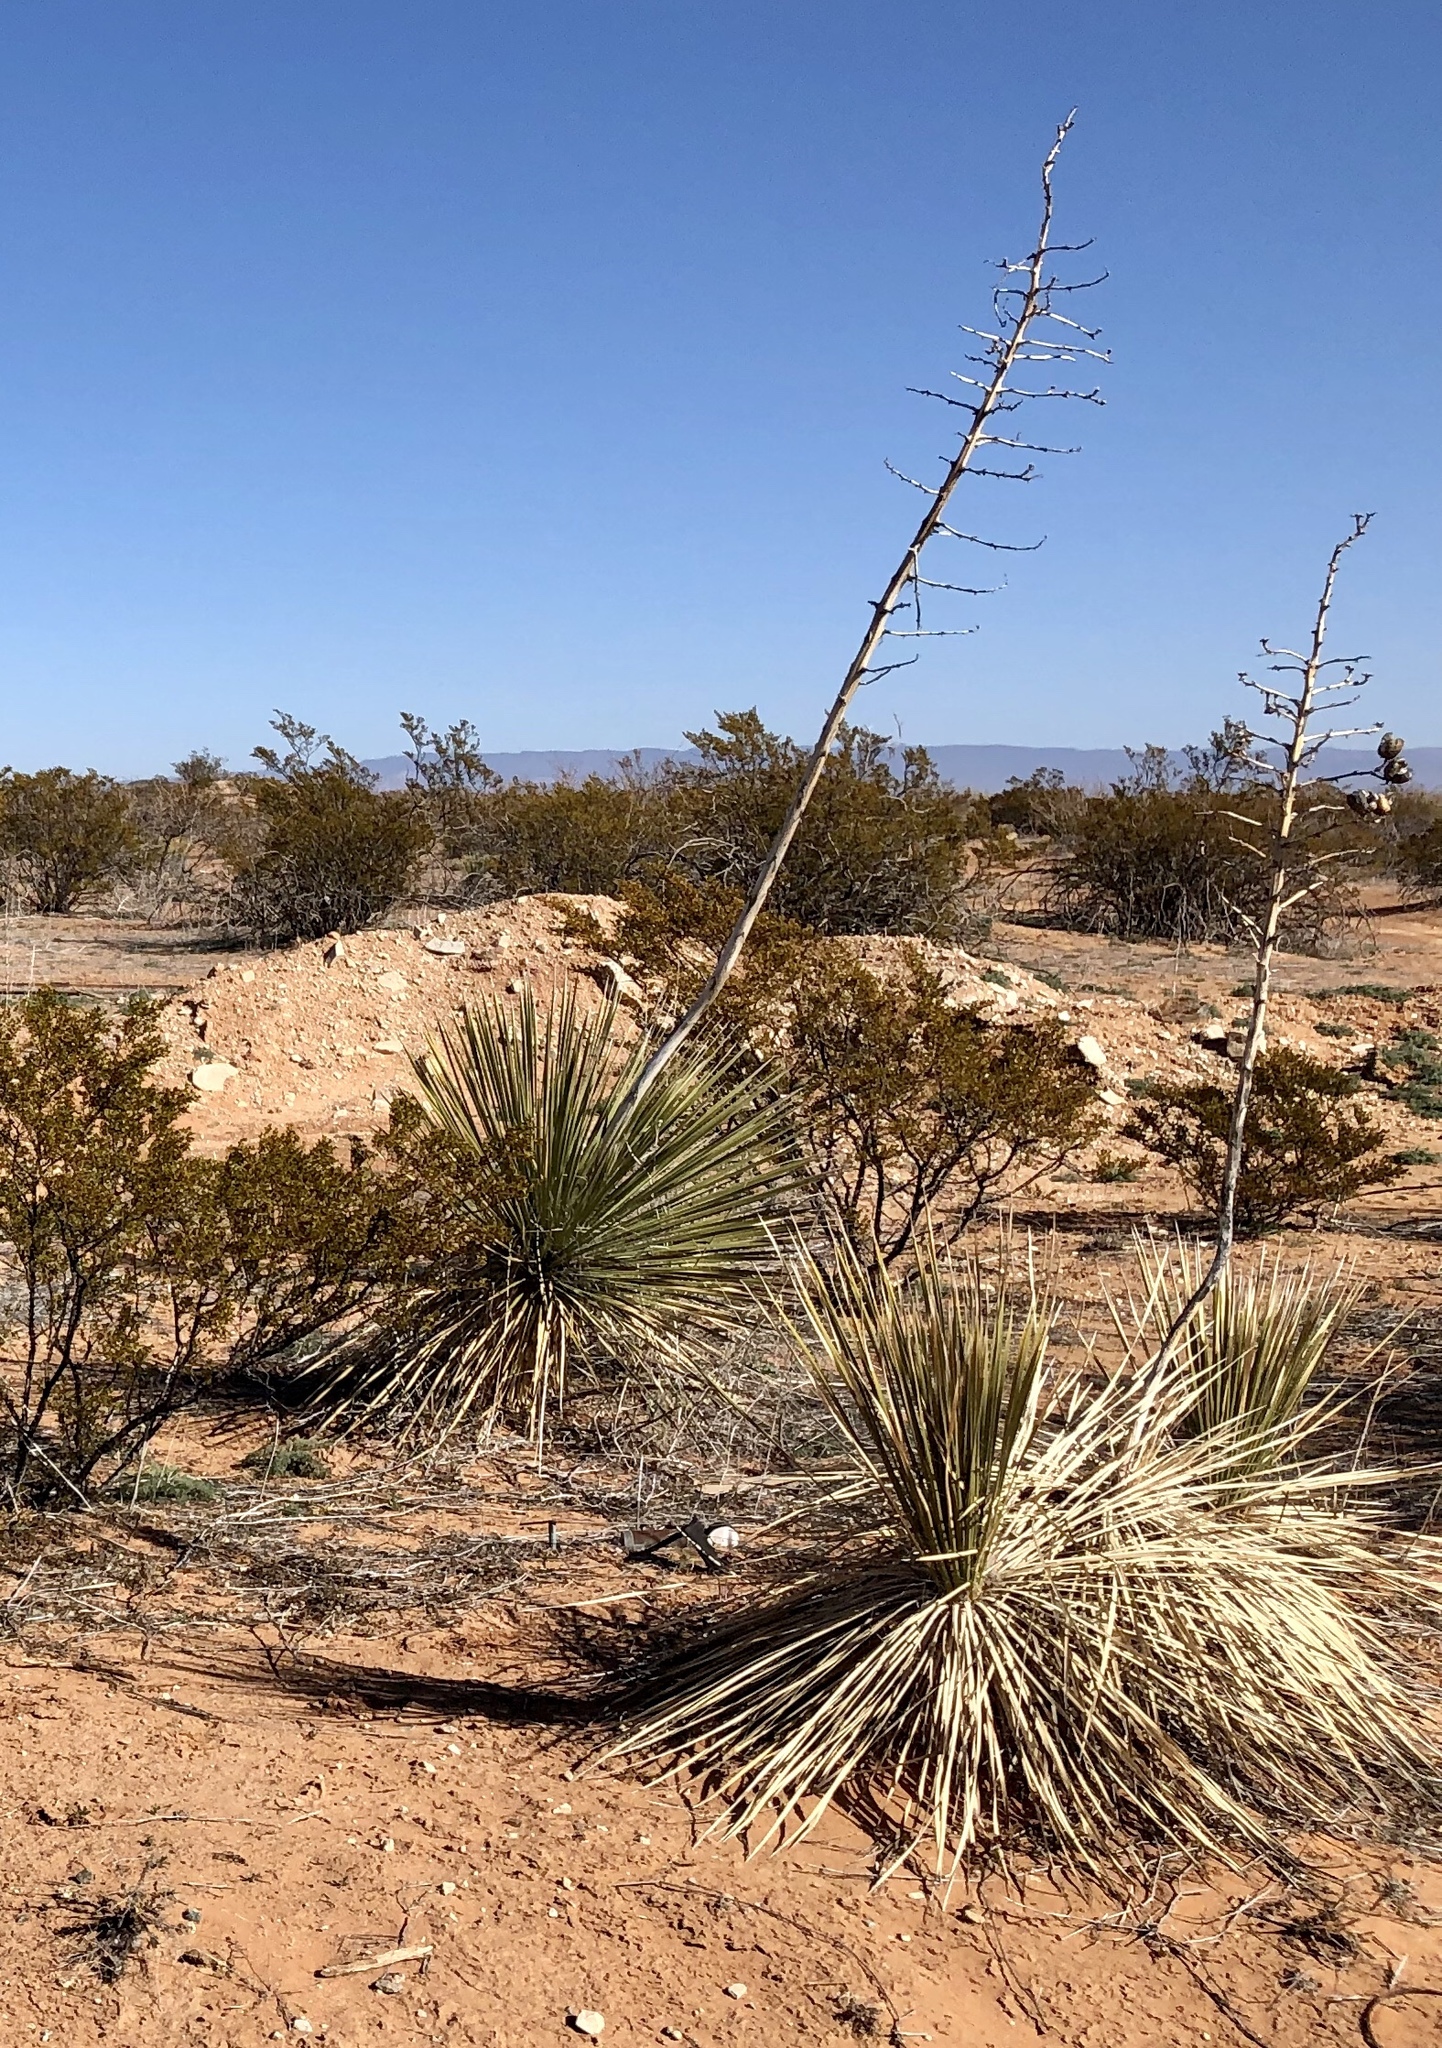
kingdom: Plantae
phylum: Tracheophyta
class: Liliopsida
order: Asparagales
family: Asparagaceae
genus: Yucca
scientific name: Yucca elata
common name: Palmella
